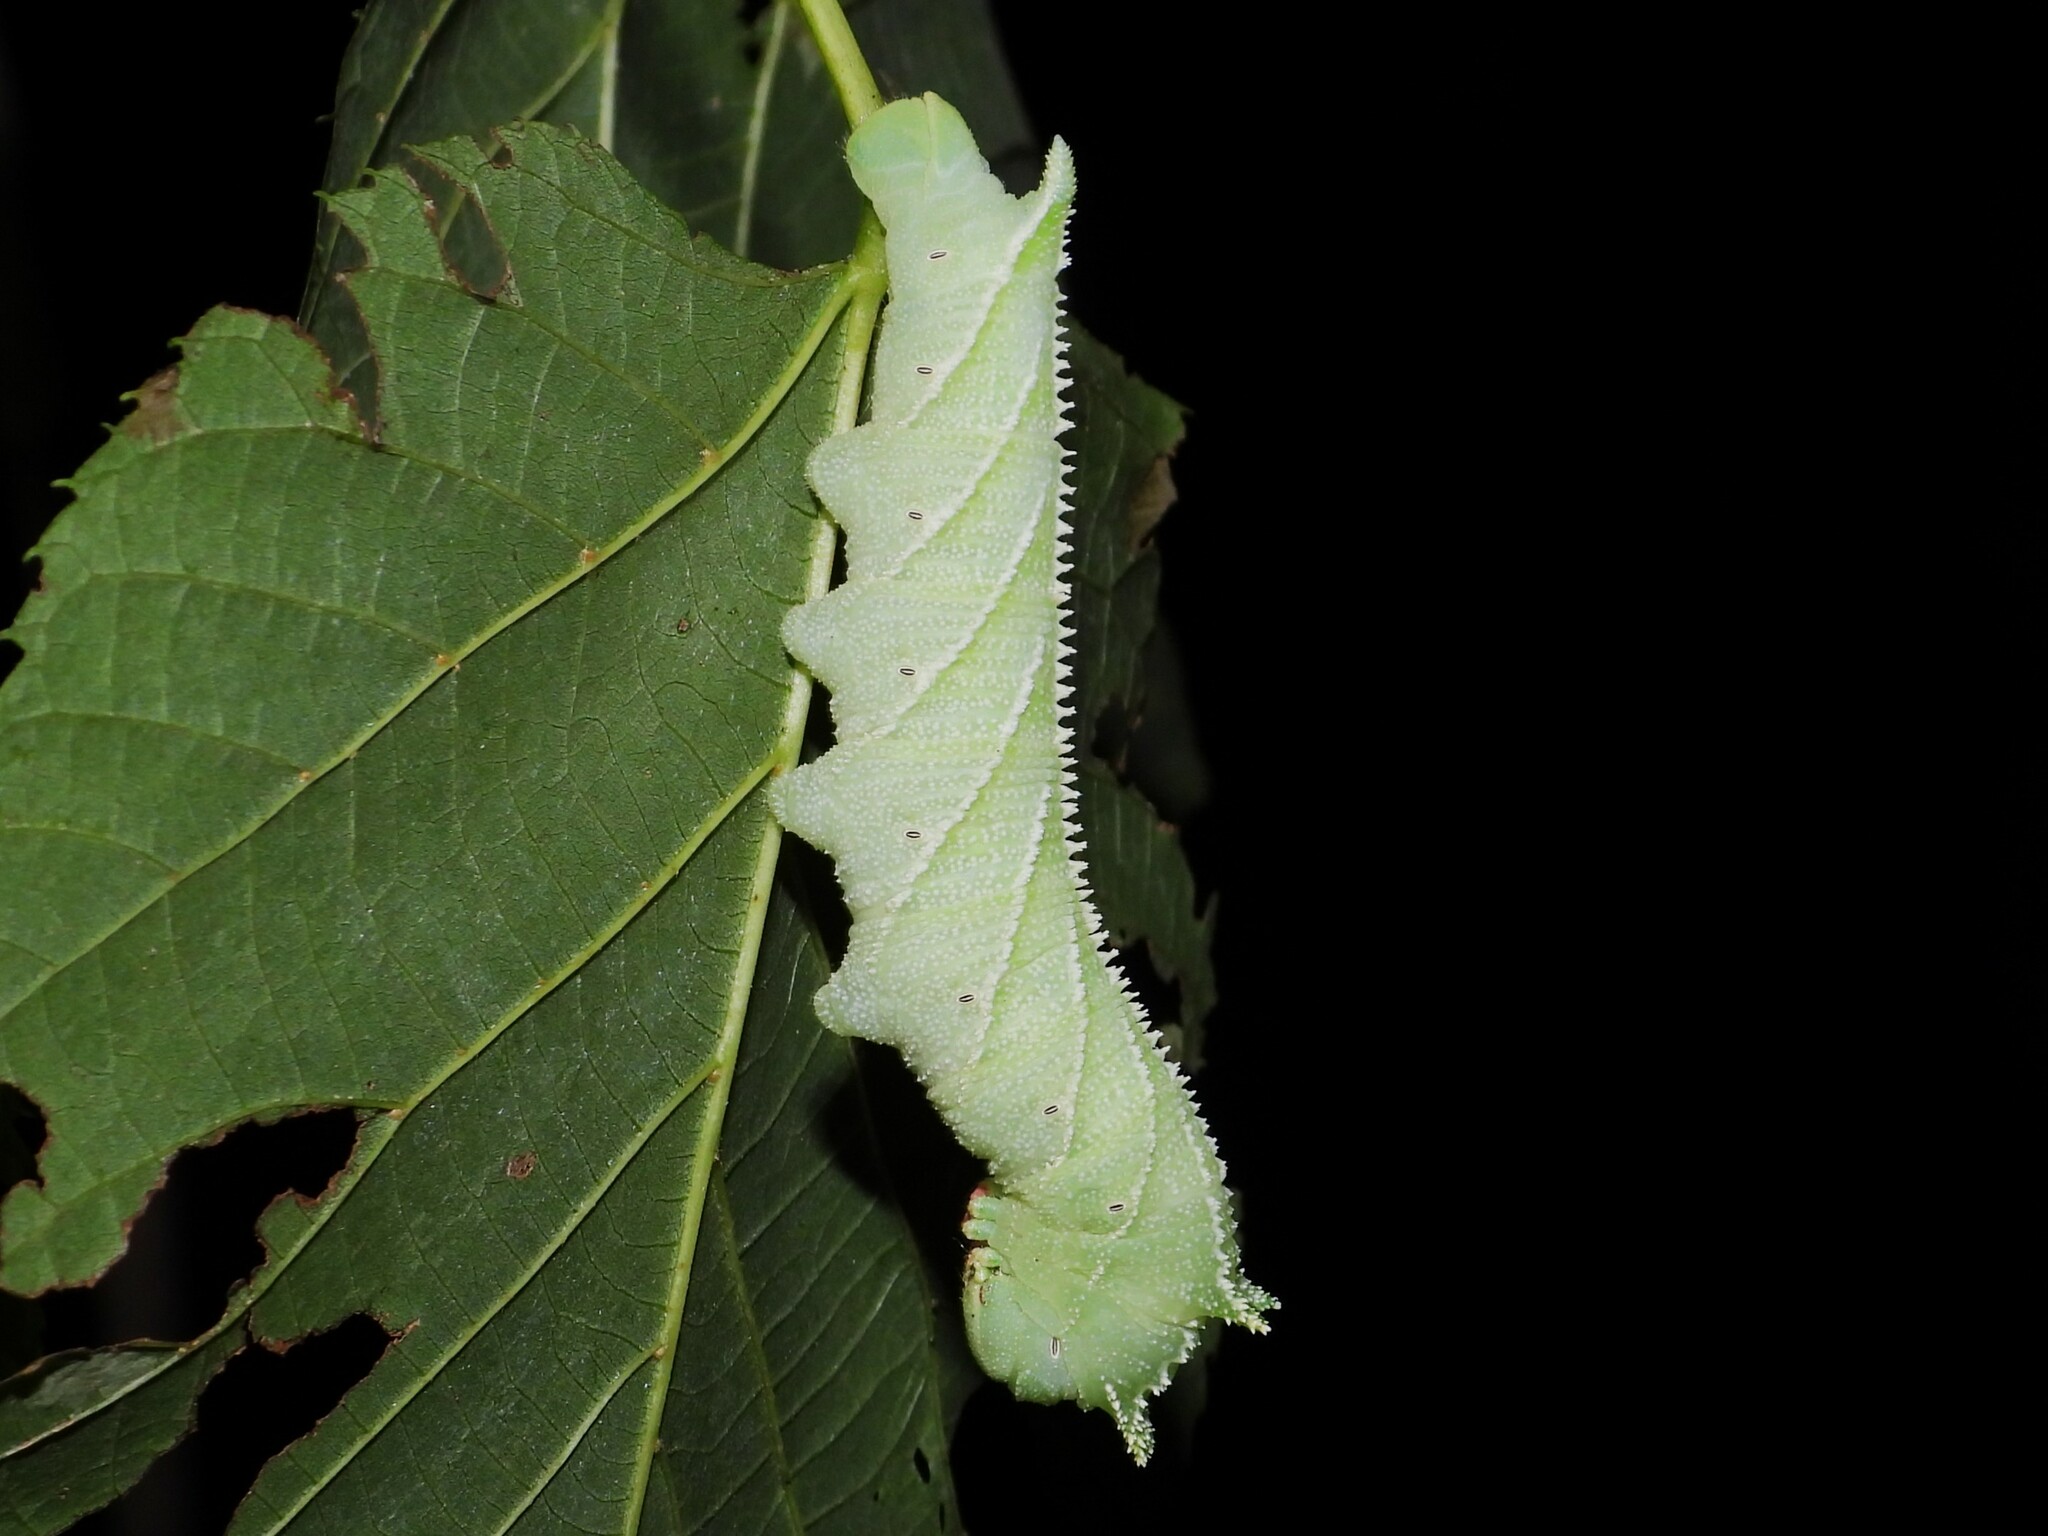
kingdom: Animalia
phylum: Arthropoda
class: Insecta
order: Lepidoptera
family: Sphingidae
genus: Ceratomia
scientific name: Ceratomia amyntor
